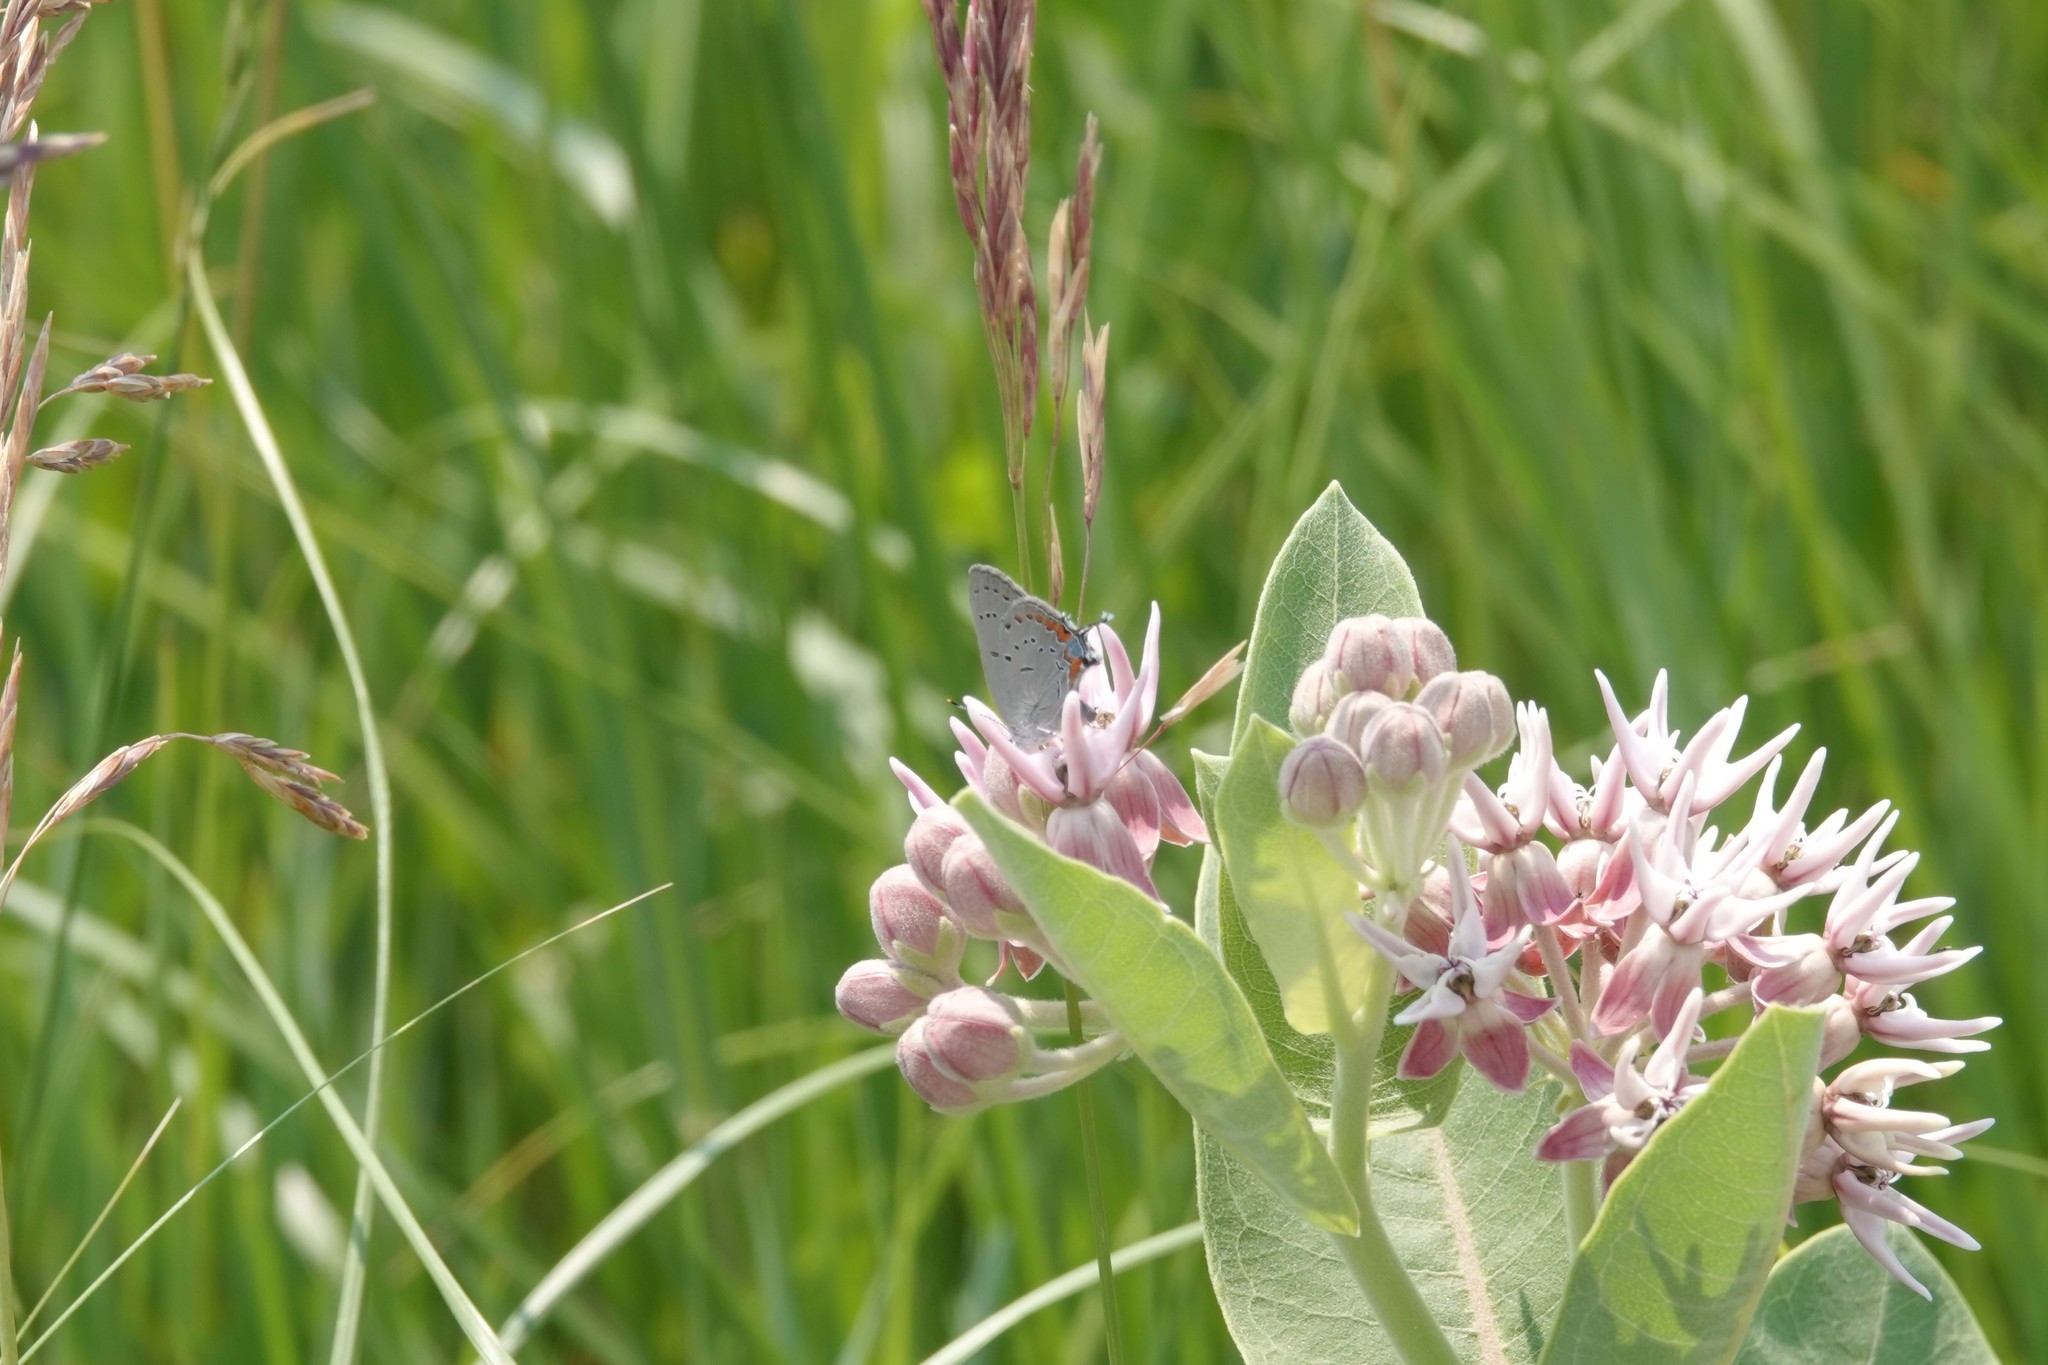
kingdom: Animalia
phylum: Arthropoda
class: Insecta
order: Lepidoptera
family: Lycaenidae
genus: Strymon
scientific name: Strymon acadica
